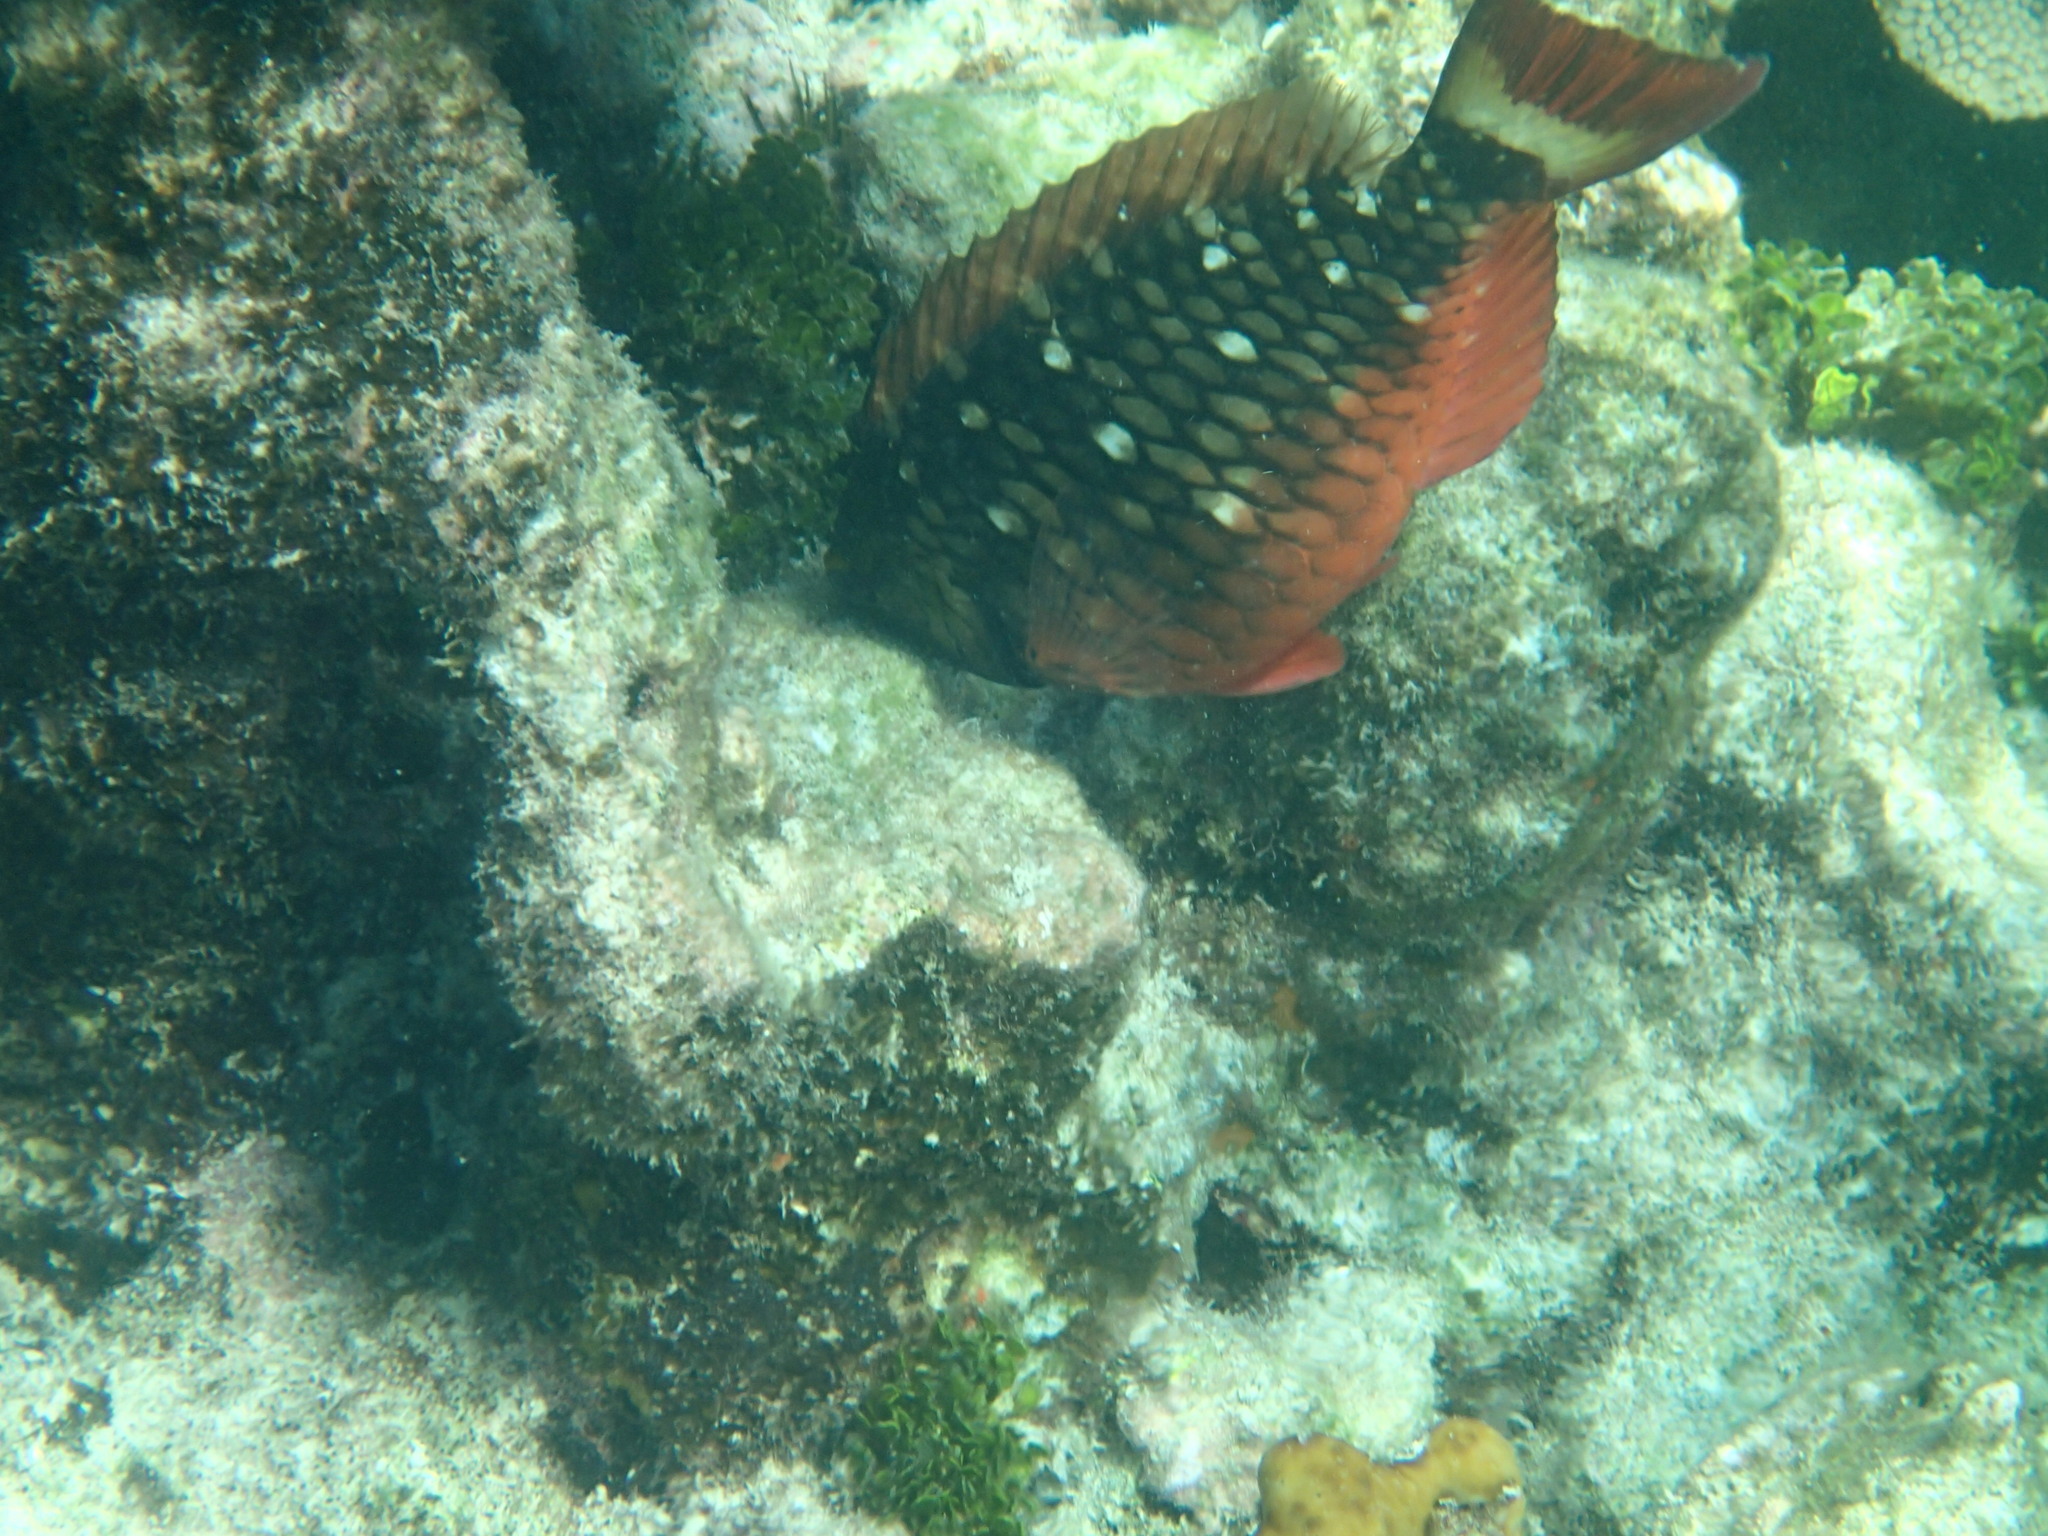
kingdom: Animalia
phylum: Chordata
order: Perciformes
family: Scaridae
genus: Sparisoma
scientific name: Sparisoma viride
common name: Stoplight parrotfish
